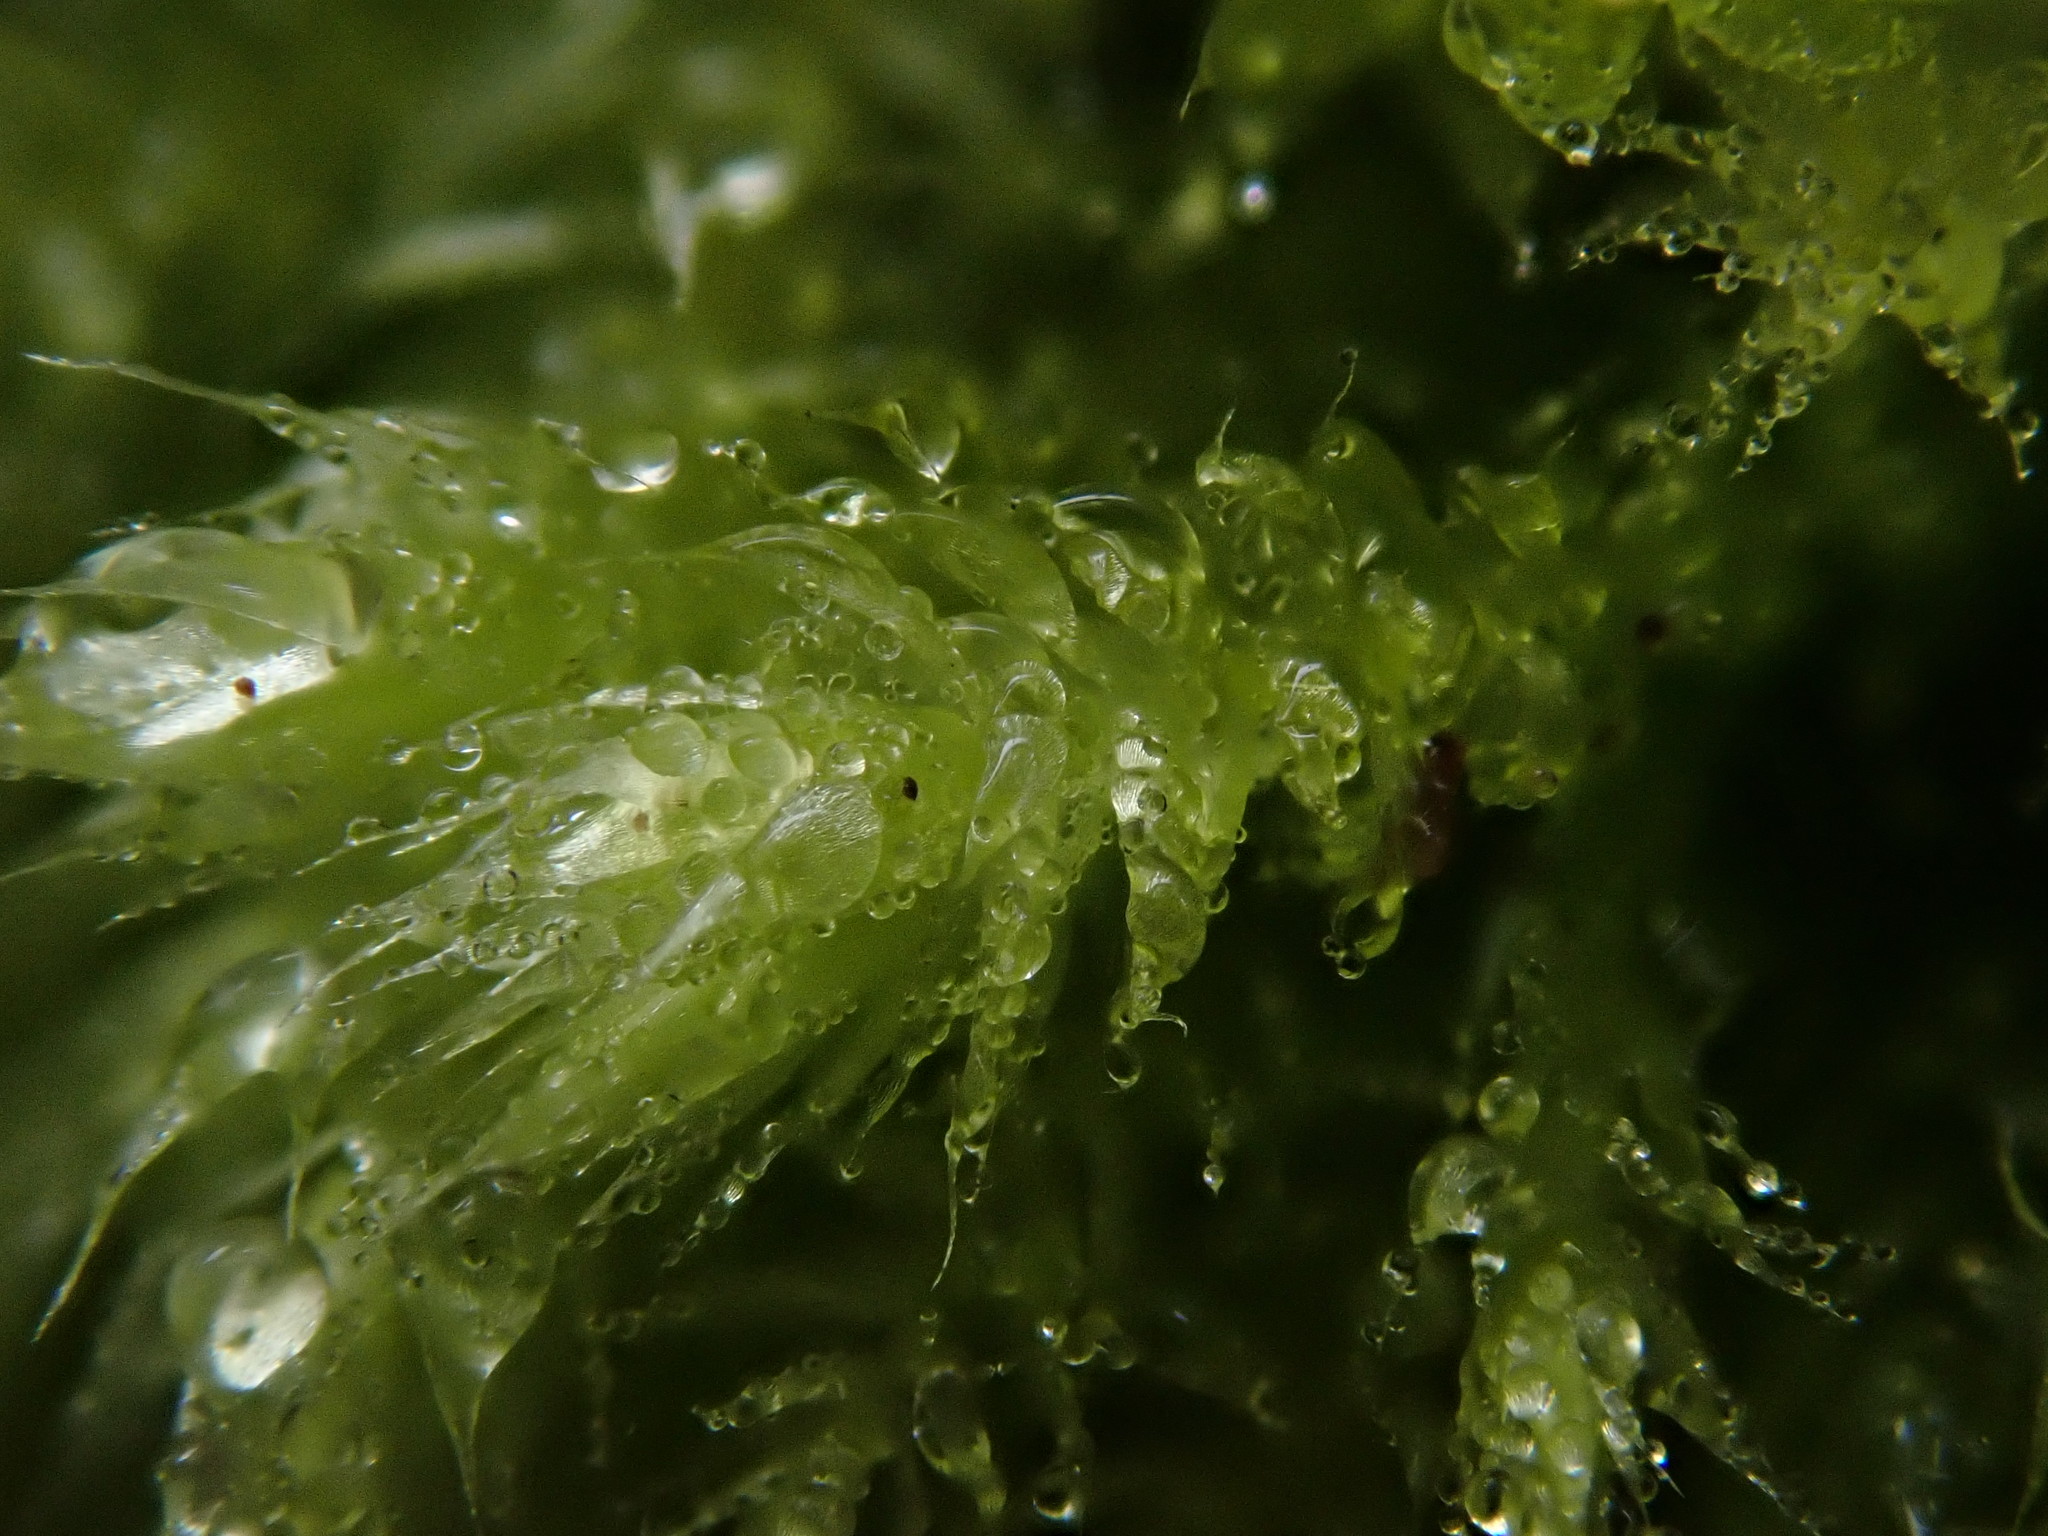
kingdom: Plantae
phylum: Bryophyta
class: Bryopsida
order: Hypnales
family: Brachytheciaceae
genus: Brachythecium
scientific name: Brachythecium rutabulum
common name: Rough-stalked feather-moss
